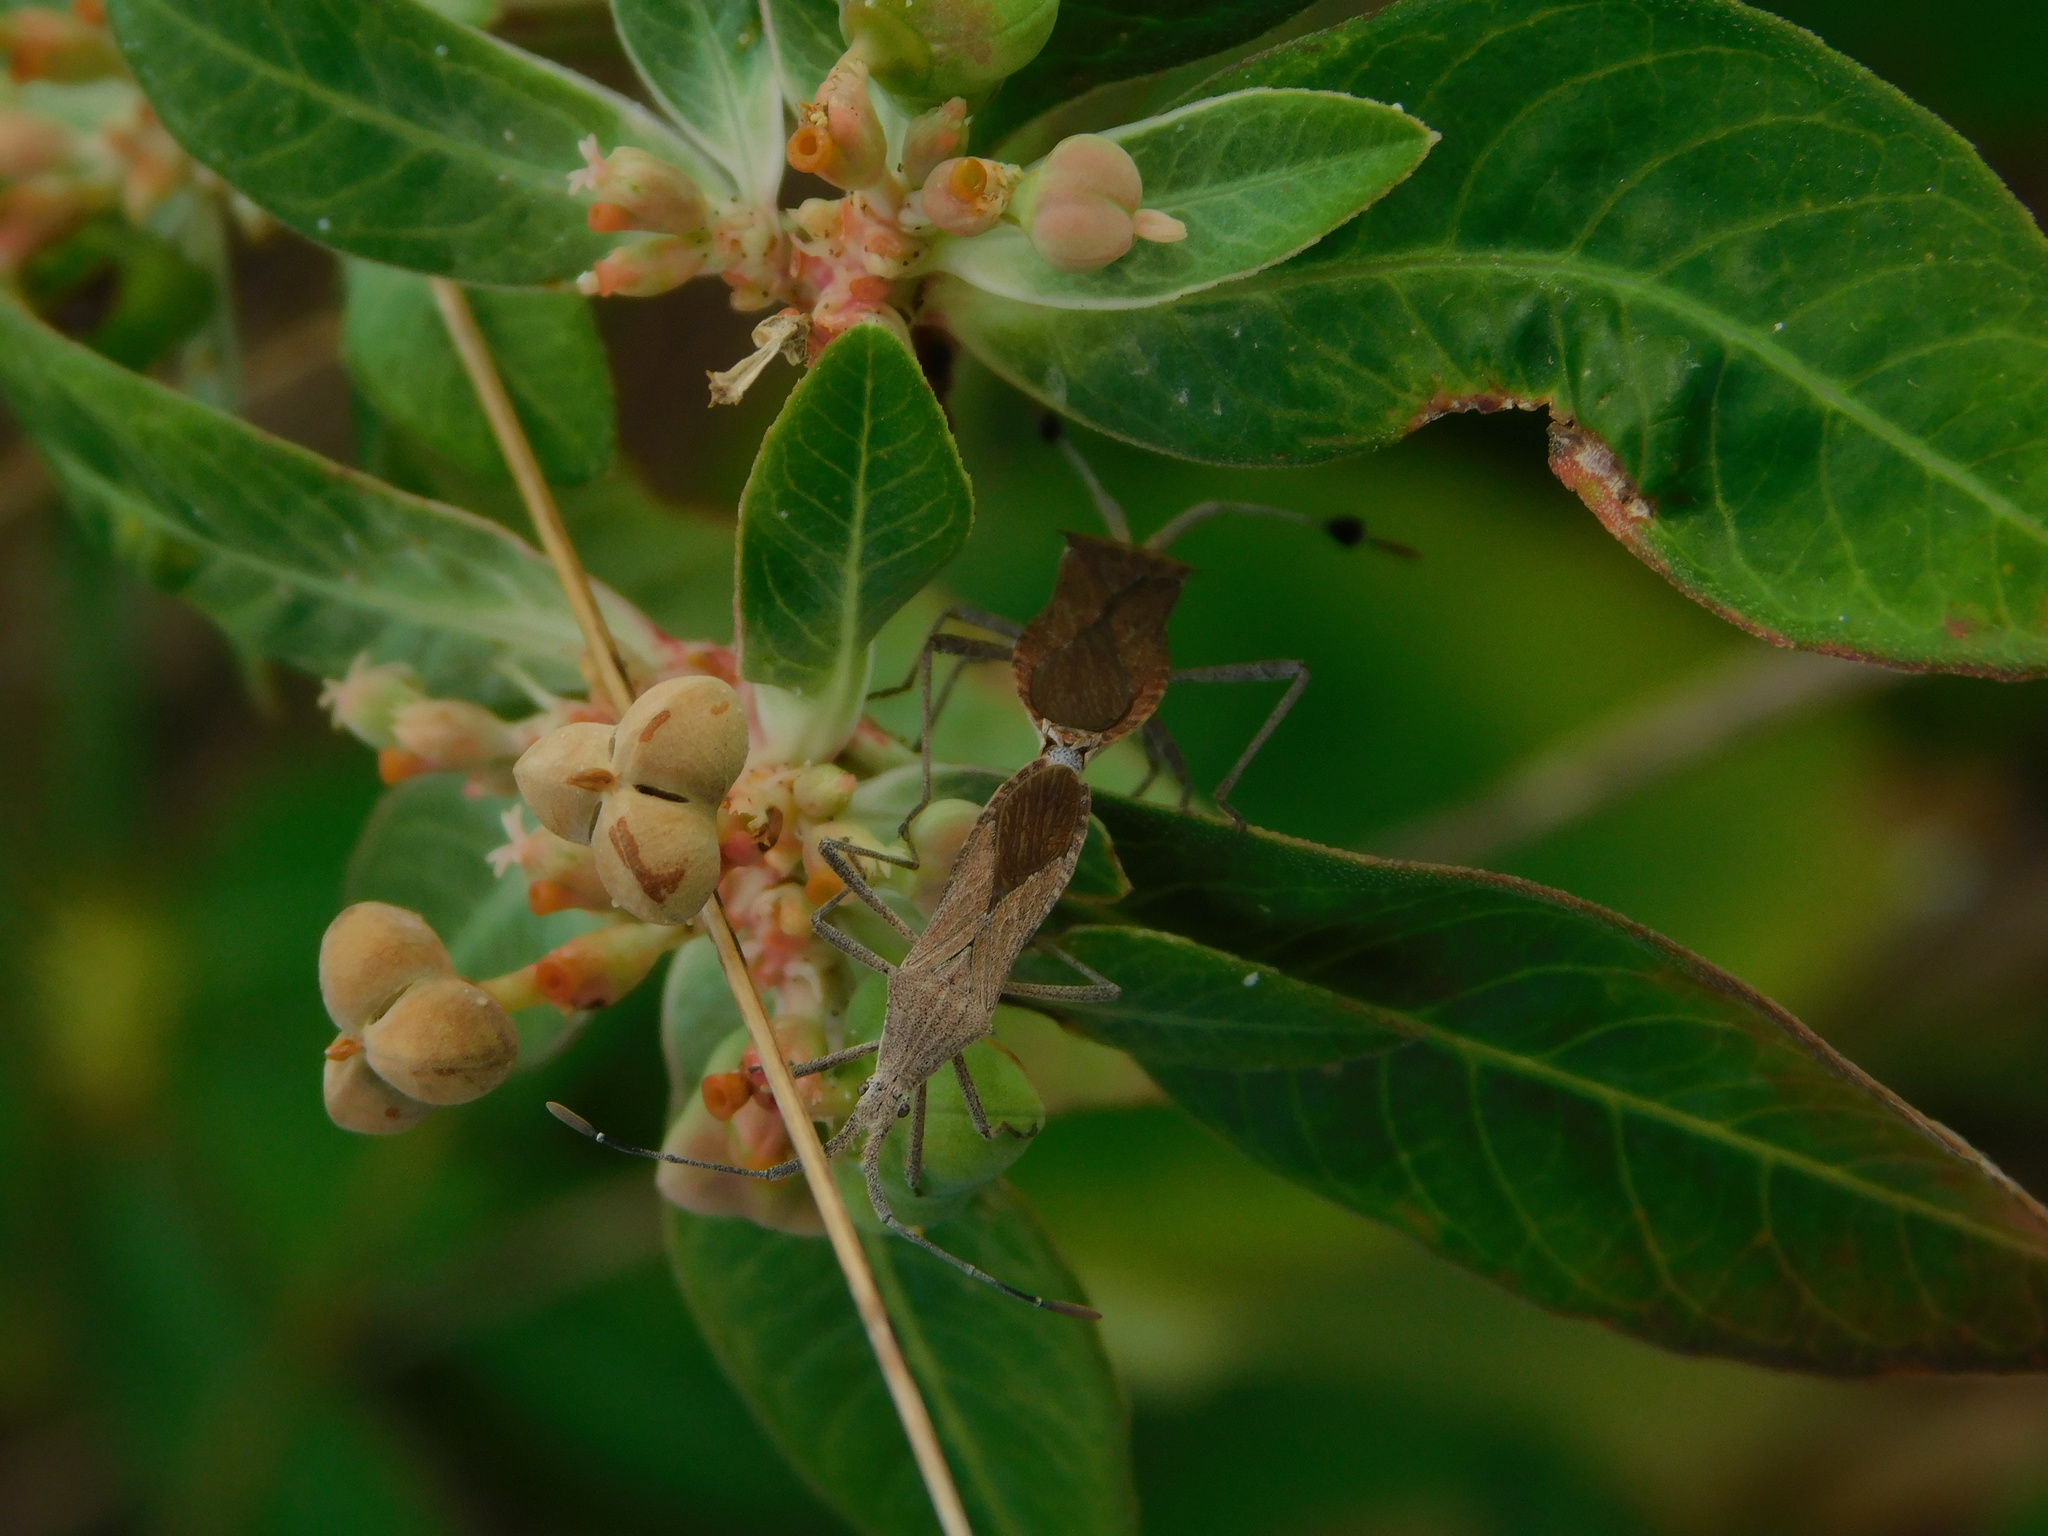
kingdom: Animalia
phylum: Arthropoda
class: Insecta
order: Hemiptera
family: Coreidae
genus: Chariesterus
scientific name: Chariesterus antennator
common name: Flat horned coreid
